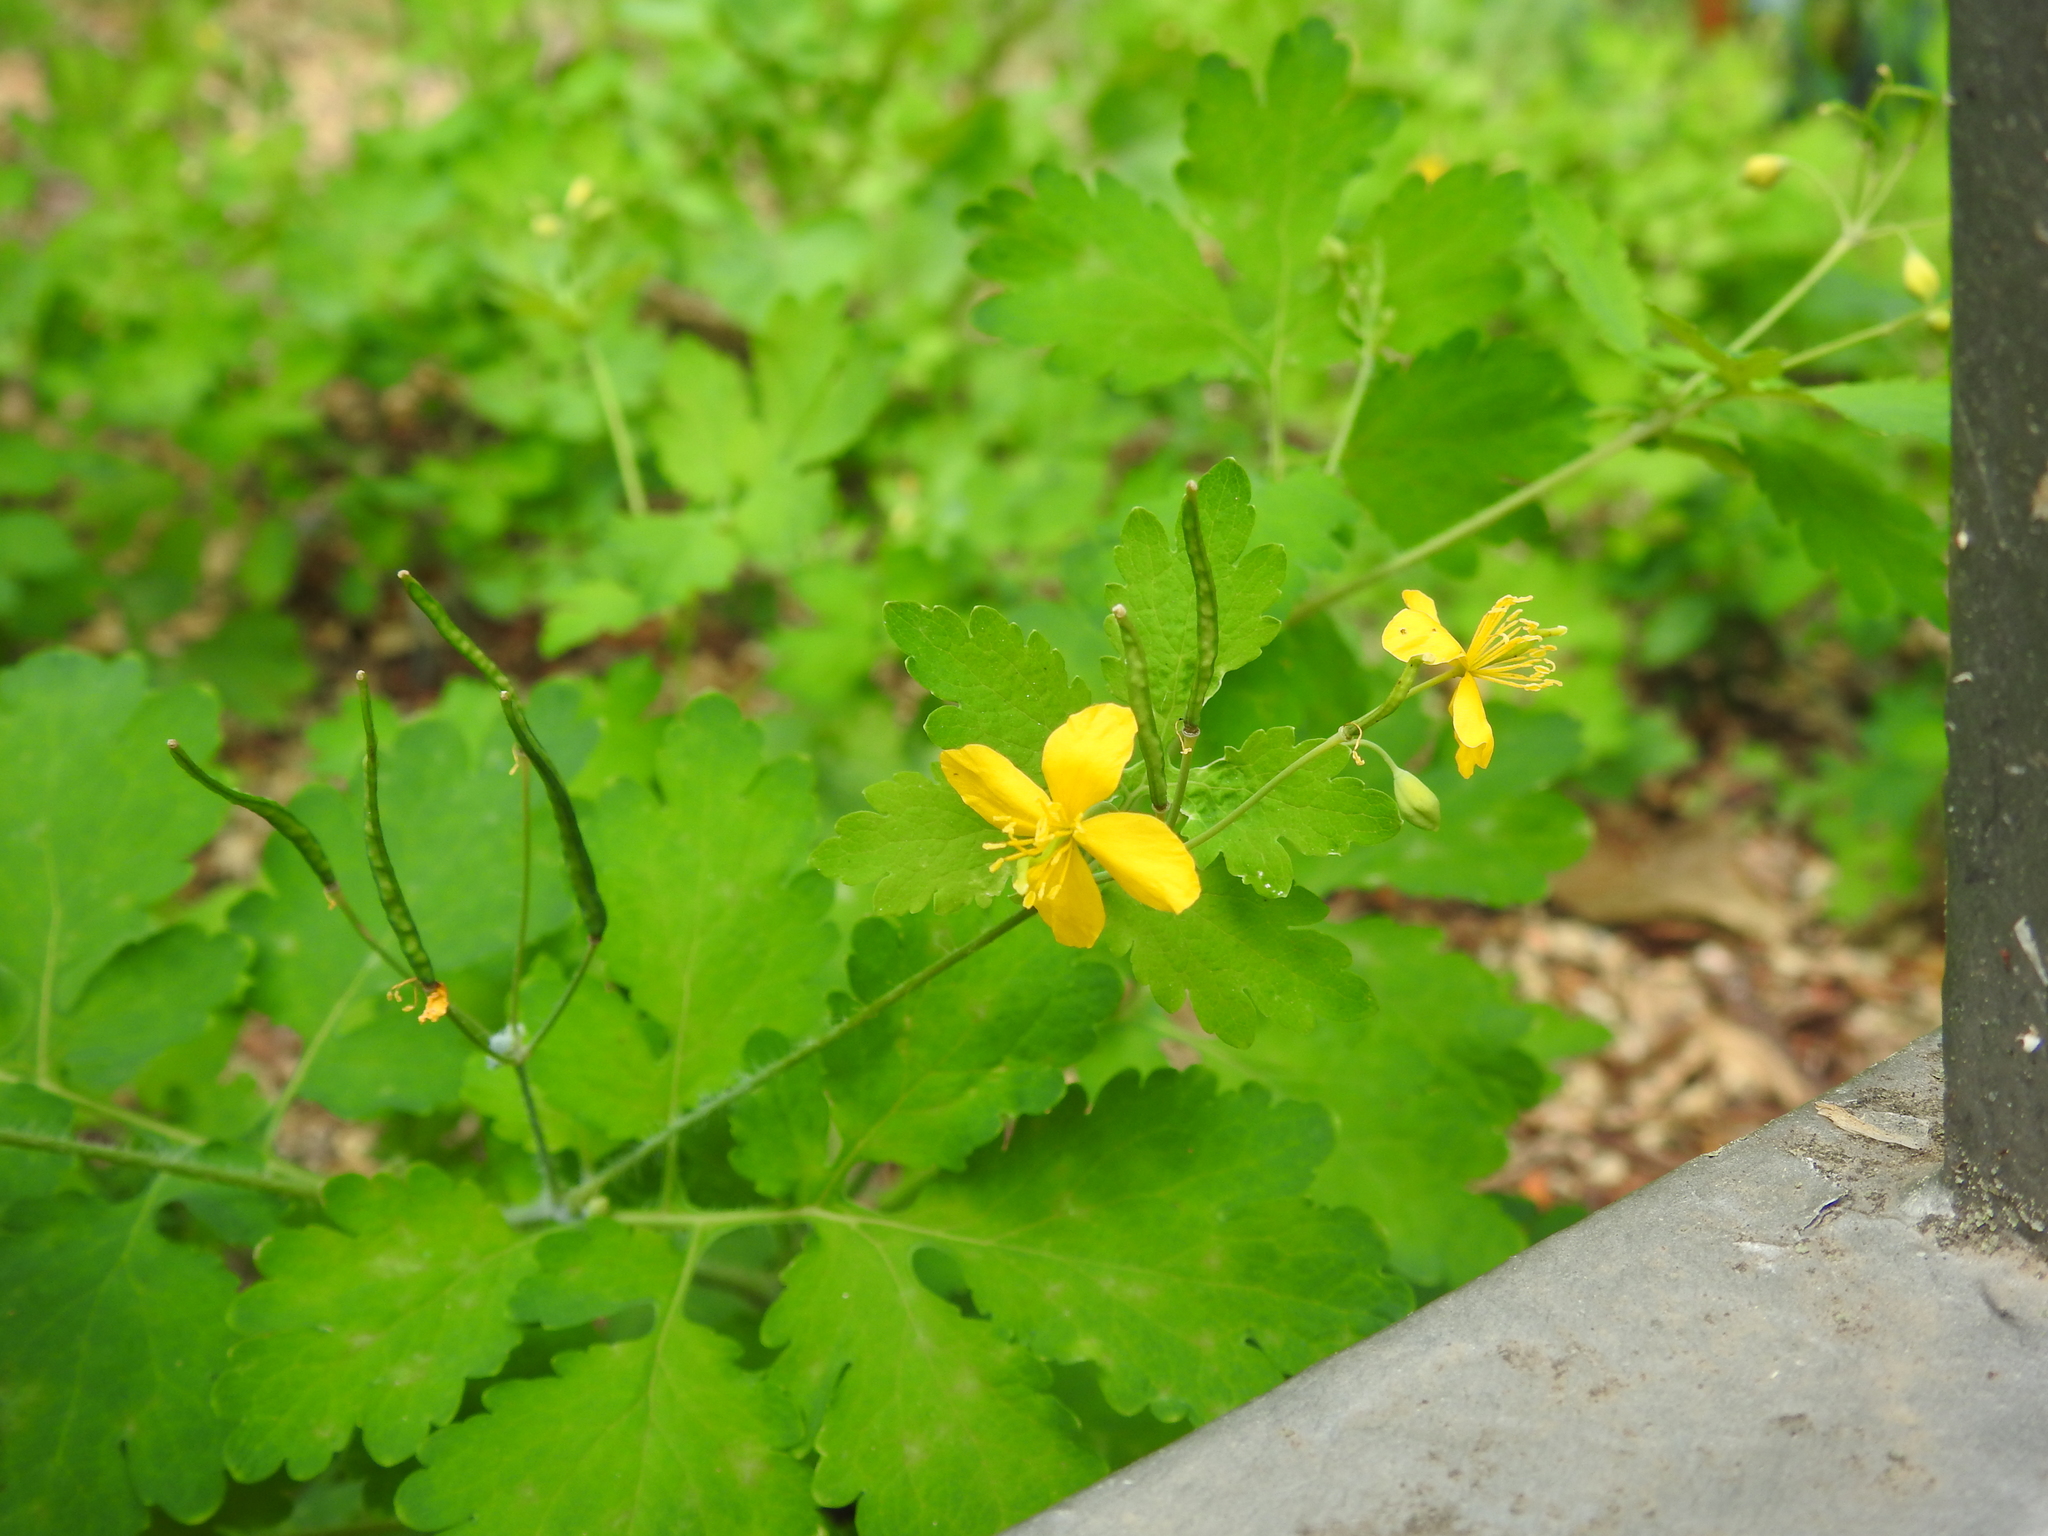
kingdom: Plantae
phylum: Tracheophyta
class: Magnoliopsida
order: Ranunculales
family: Papaveraceae
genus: Chelidonium
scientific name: Chelidonium majus
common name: Greater celandine
